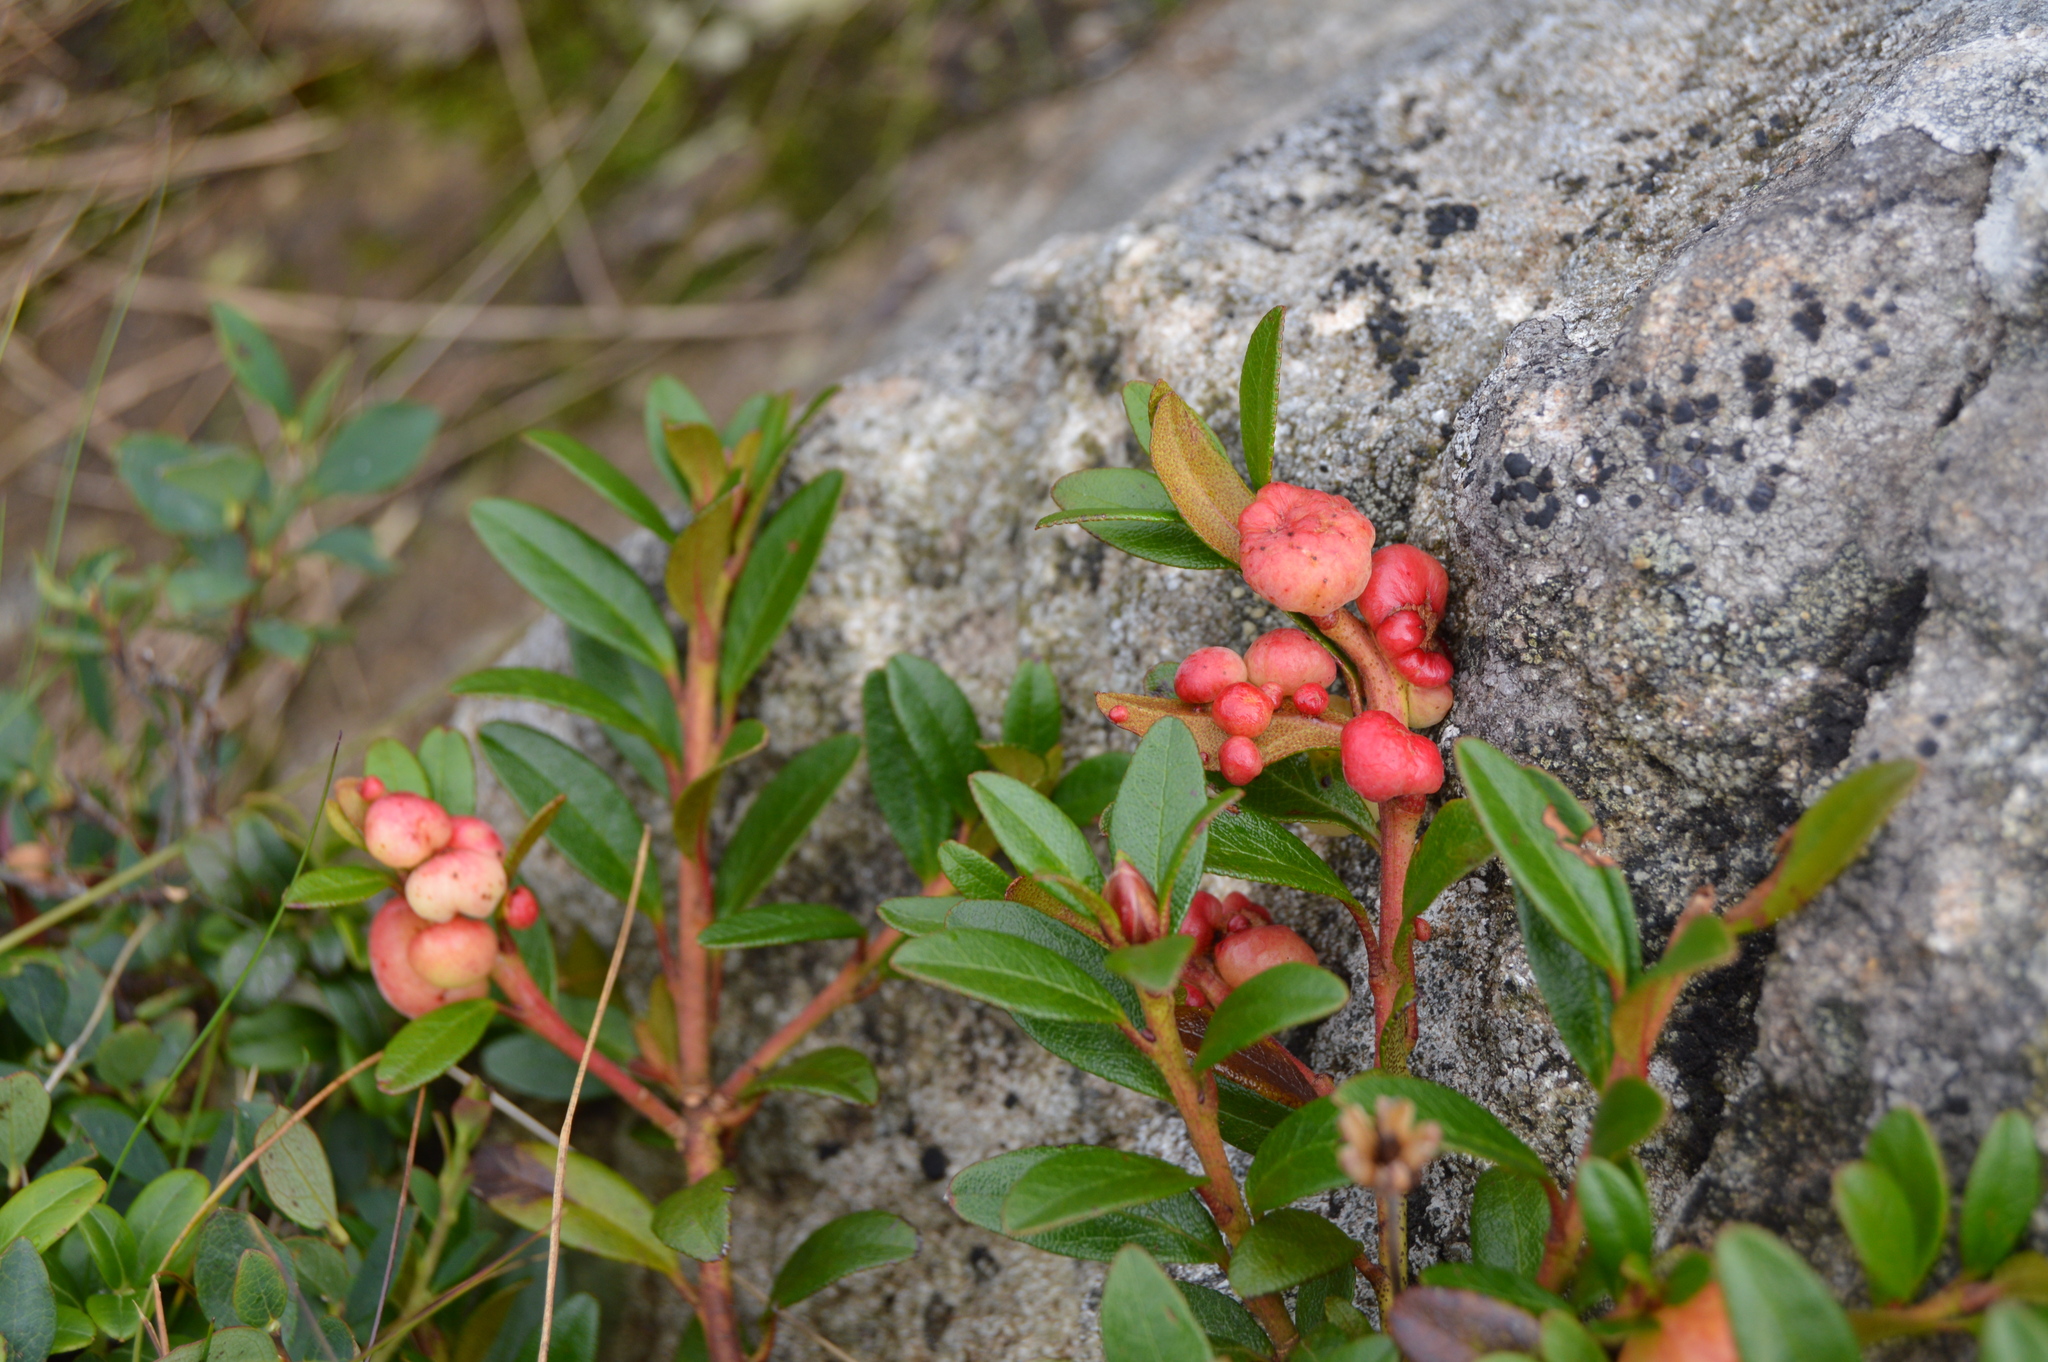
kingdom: Fungi
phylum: Basidiomycota
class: Exobasidiomycetes
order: Exobasidiales
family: Exobasidiaceae
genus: Exobasidium
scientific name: Exobasidium rhododendri
